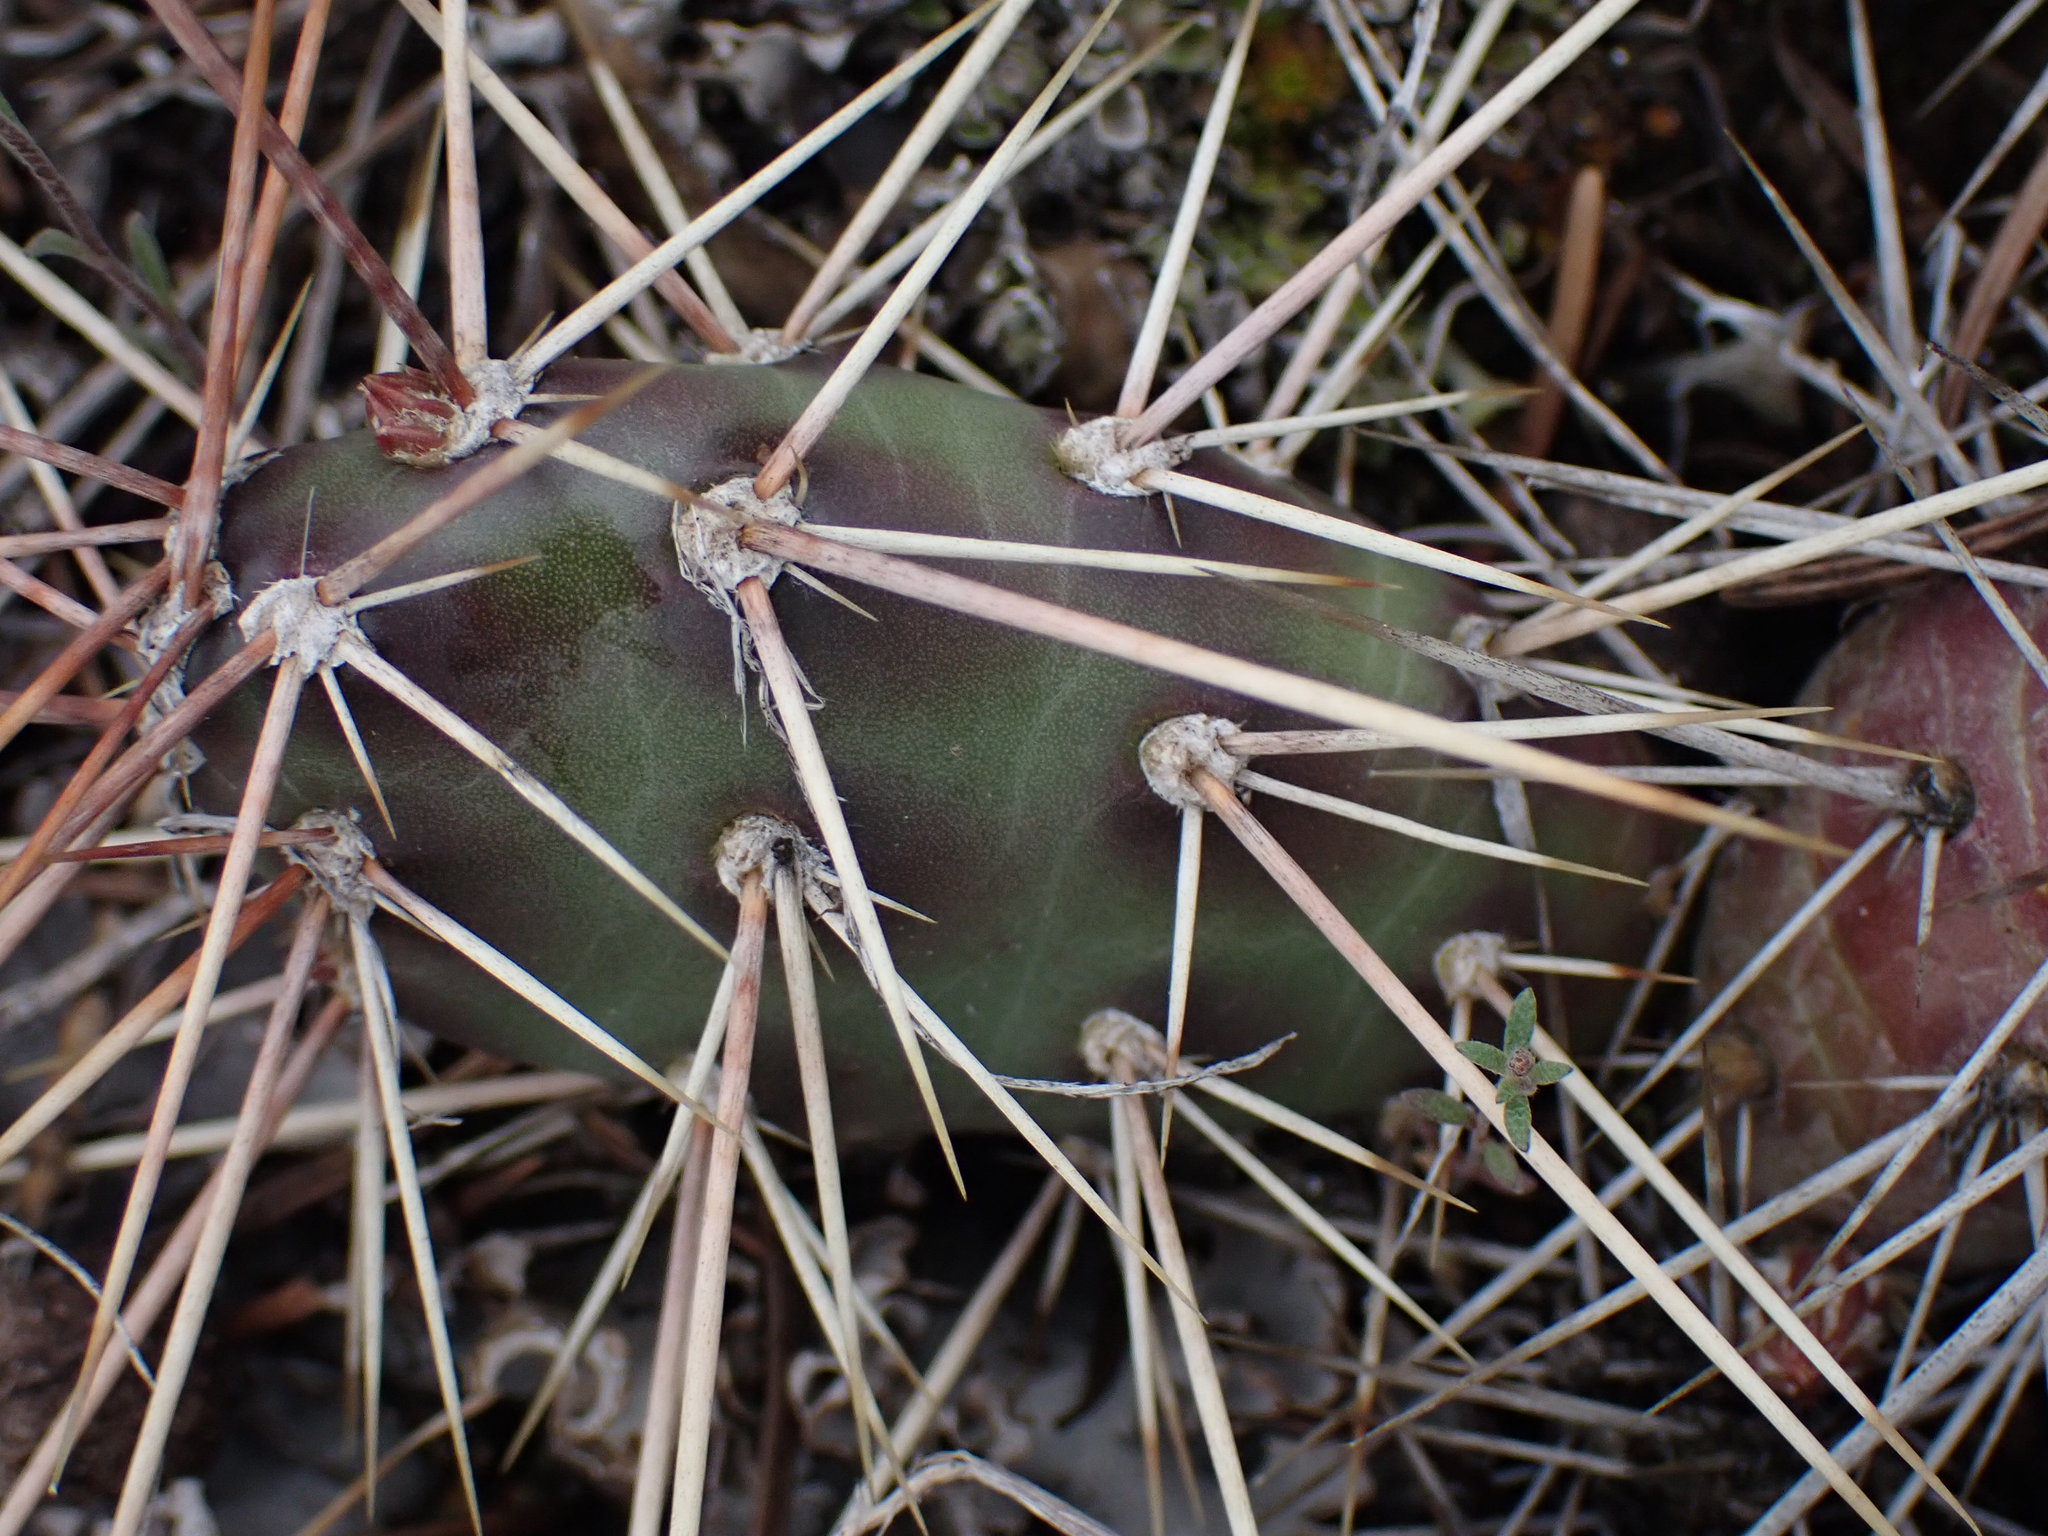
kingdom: Plantae
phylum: Tracheophyta
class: Magnoliopsida
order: Caryophyllales
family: Cactaceae
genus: Opuntia
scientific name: Opuntia fragilis
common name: Brittle cactus
